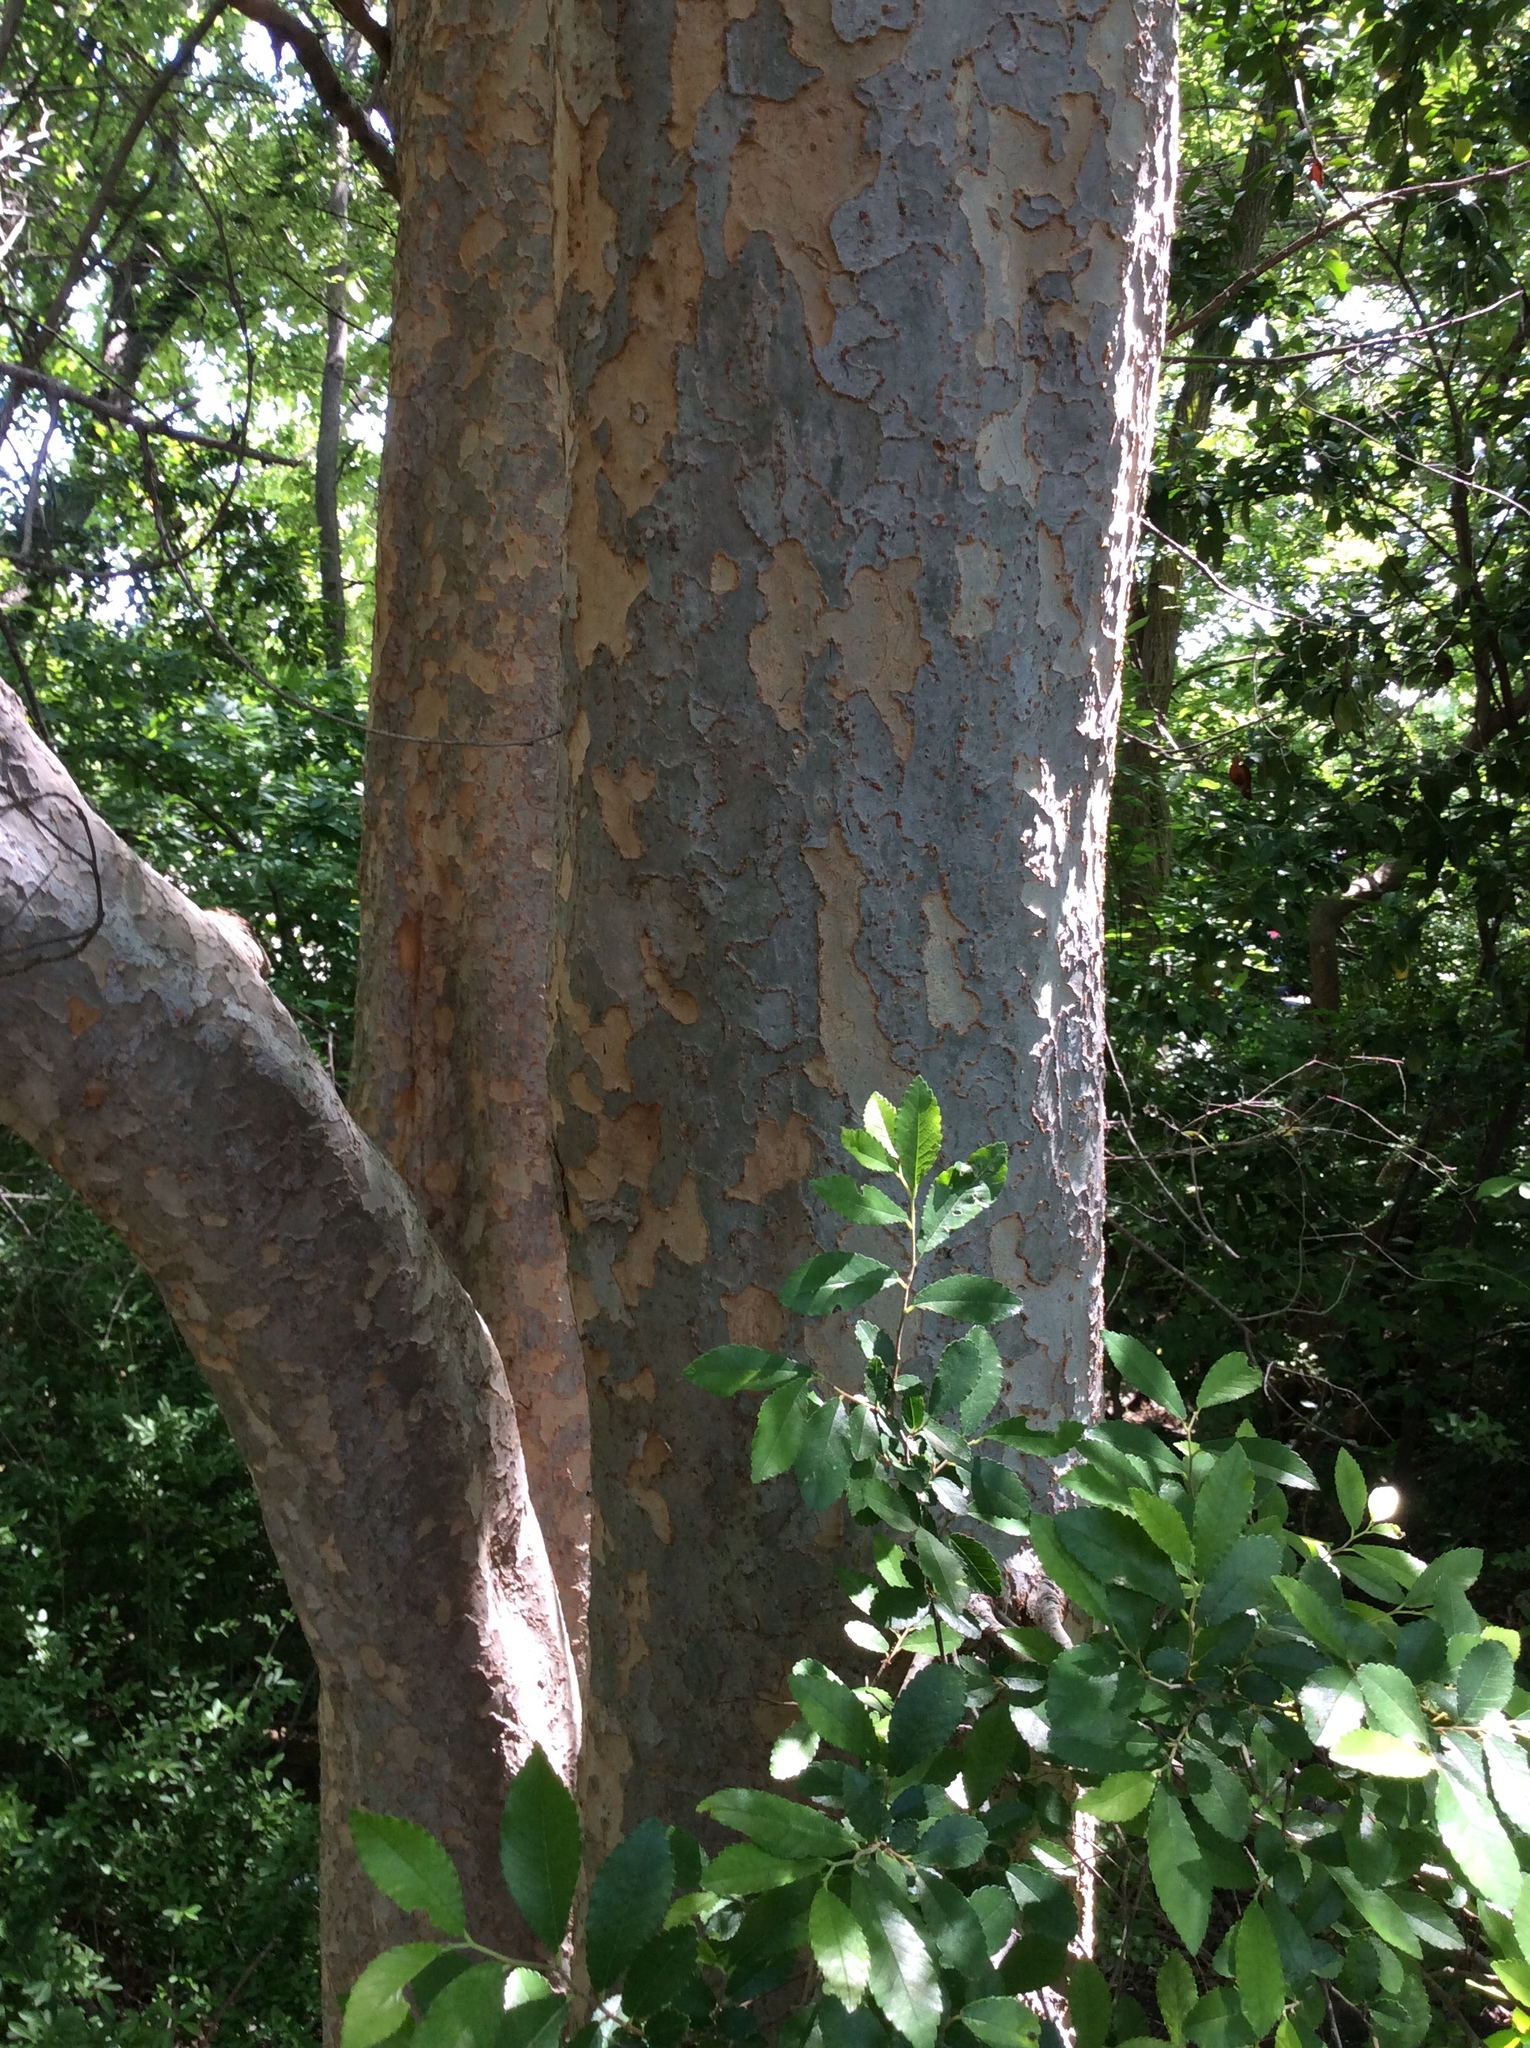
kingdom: Plantae
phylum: Tracheophyta
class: Magnoliopsida
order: Rosales
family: Ulmaceae
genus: Ulmus
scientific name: Ulmus parvifolia
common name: Chinese elm
